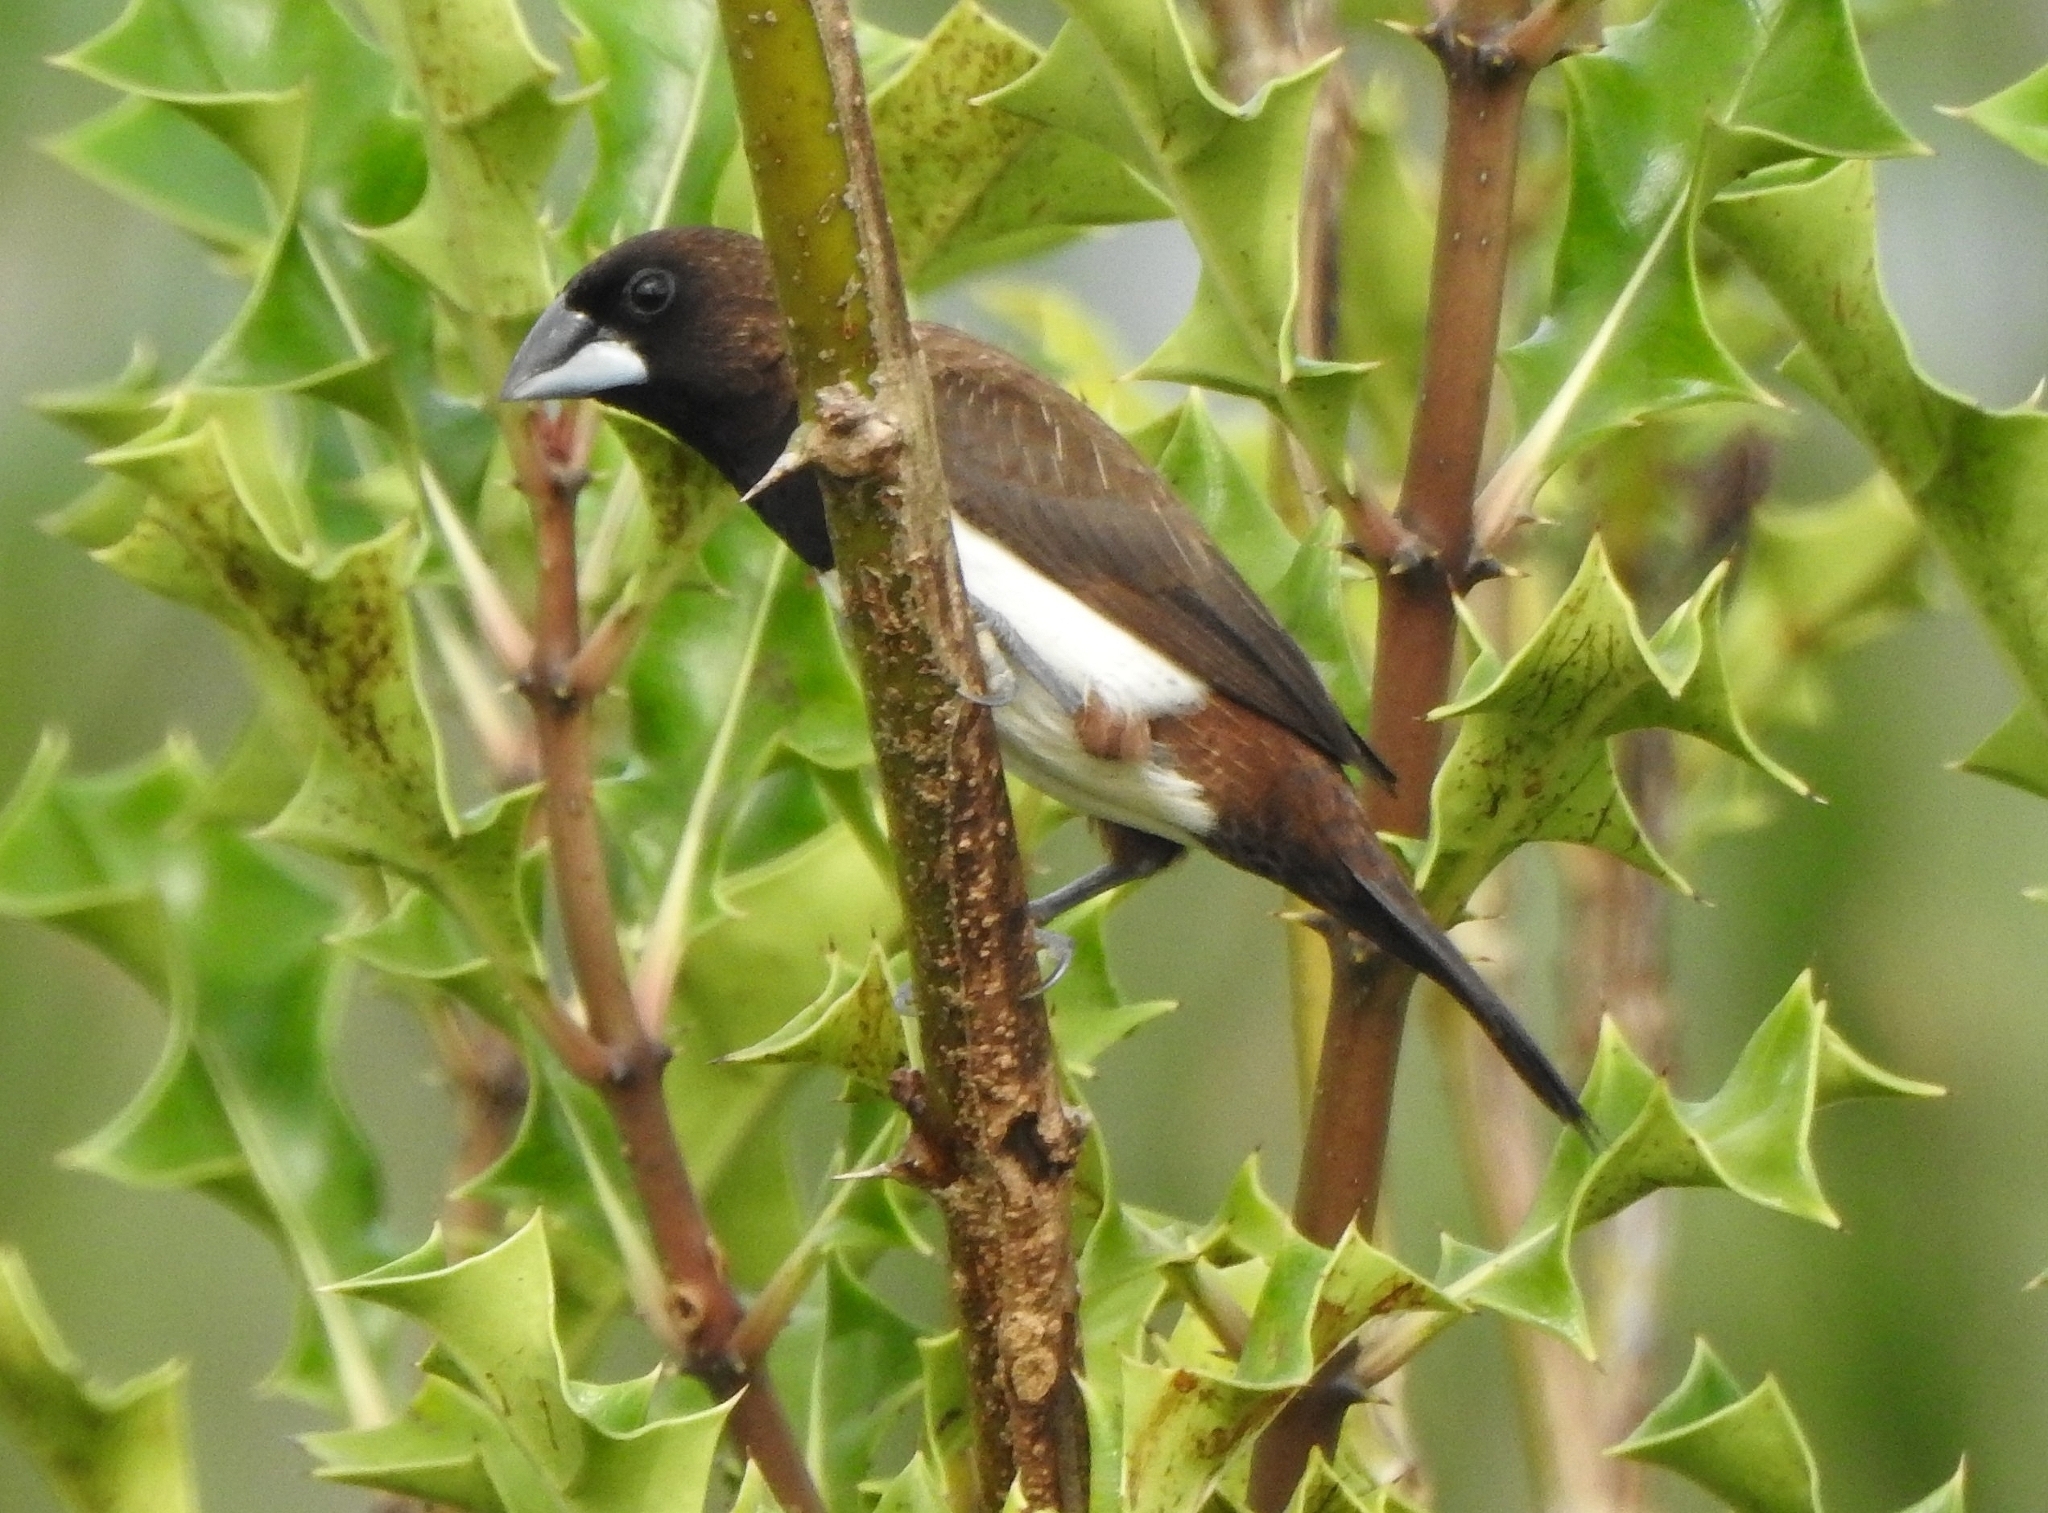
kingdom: Animalia
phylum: Chordata
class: Aves
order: Passeriformes
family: Estrildidae
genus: Lonchura
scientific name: Lonchura striata
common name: White-rumped munia
